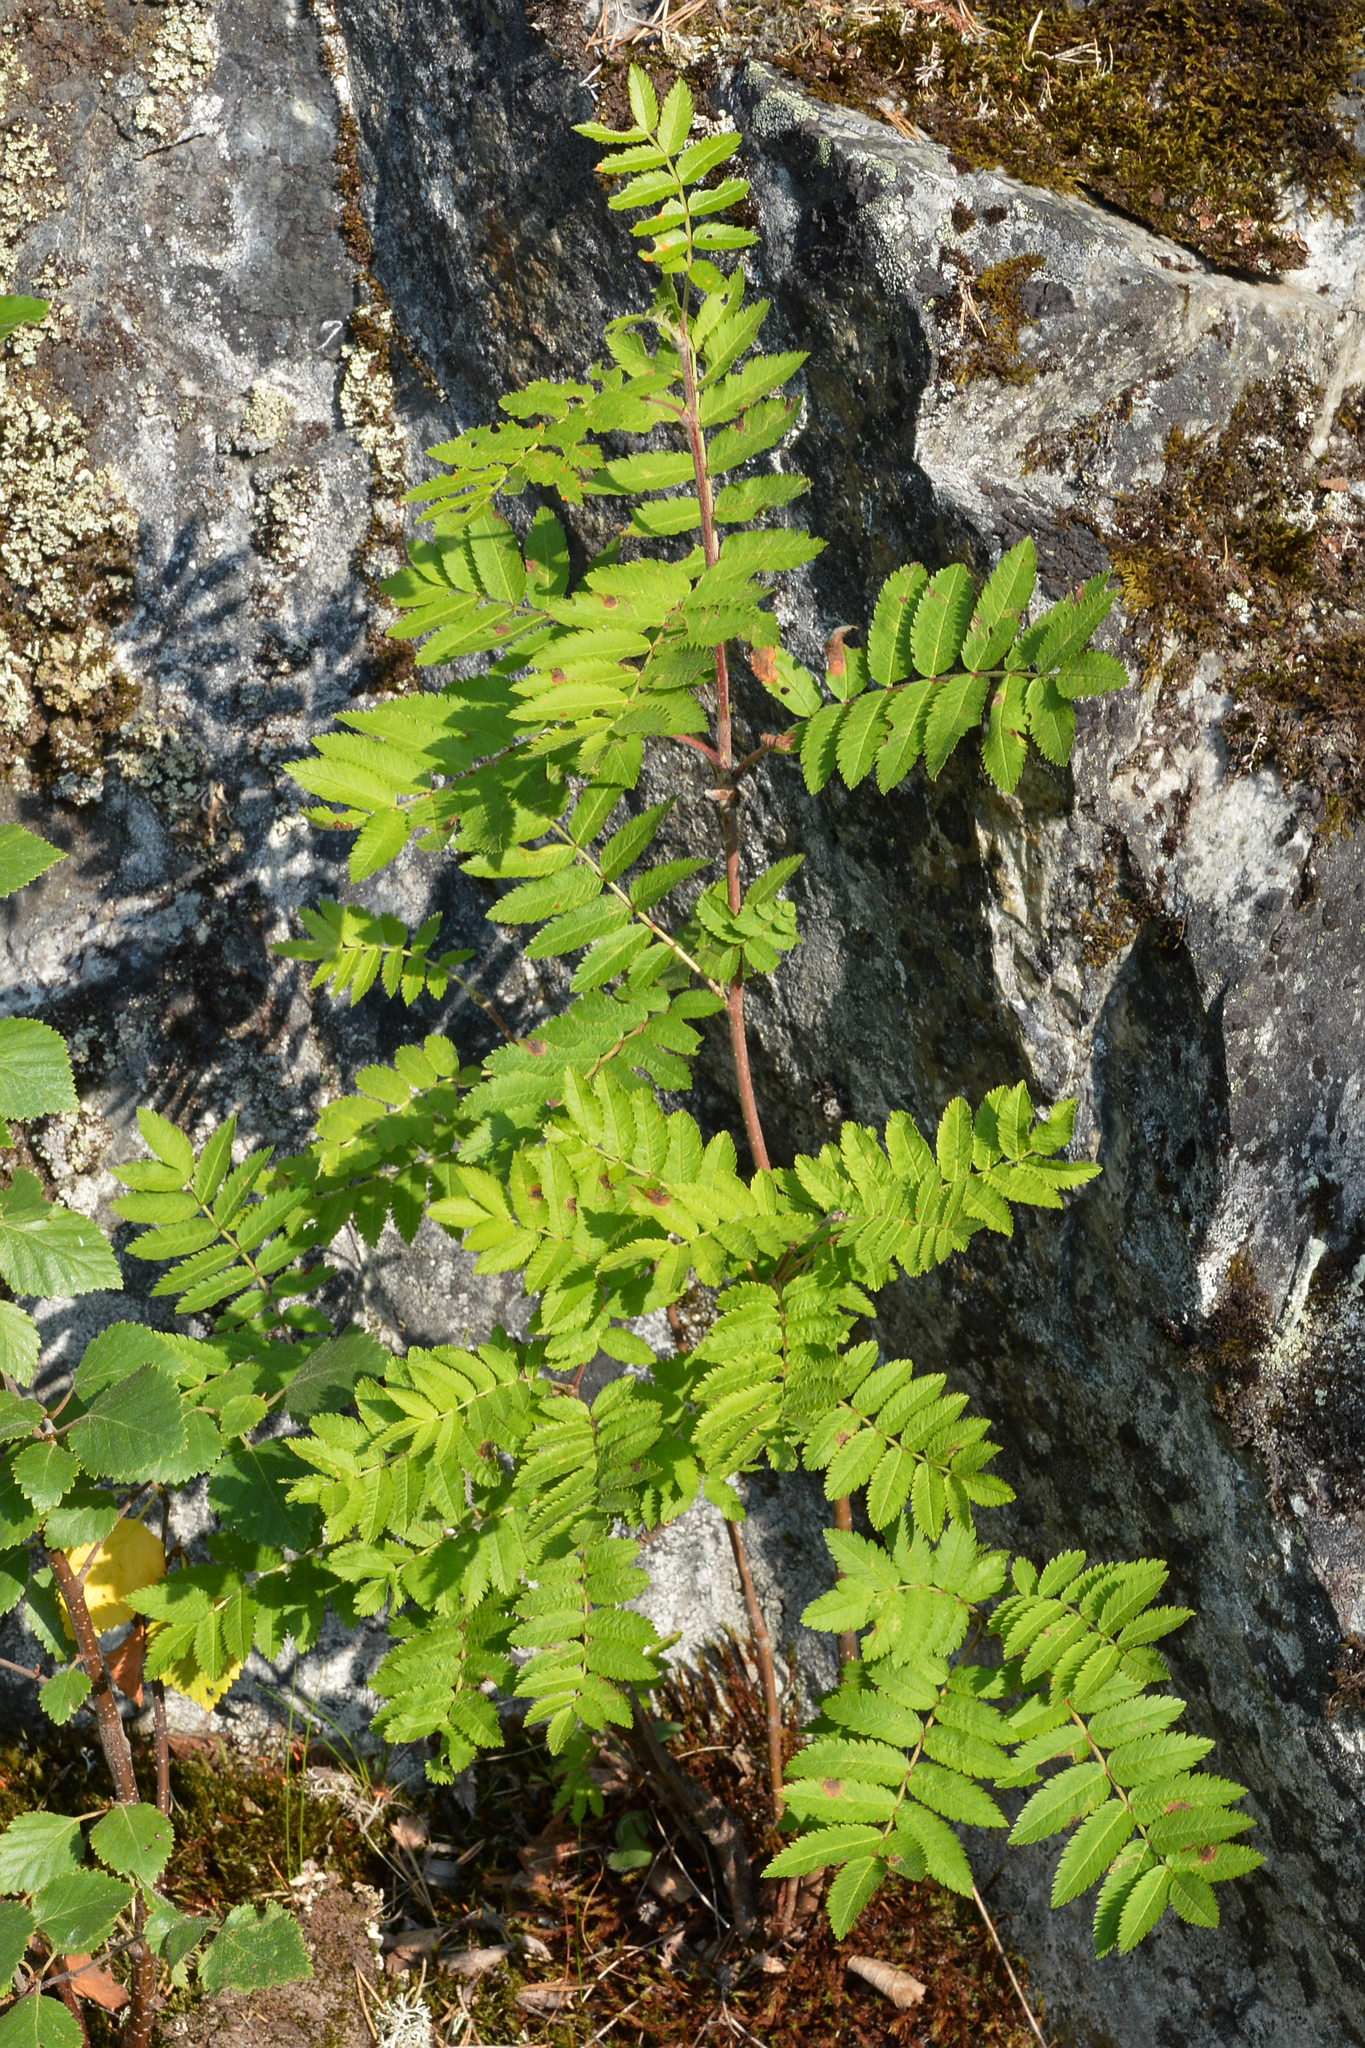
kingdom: Plantae
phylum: Tracheophyta
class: Magnoliopsida
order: Rosales
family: Rosaceae
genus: Sorbus
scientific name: Sorbus aucuparia
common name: Rowan
